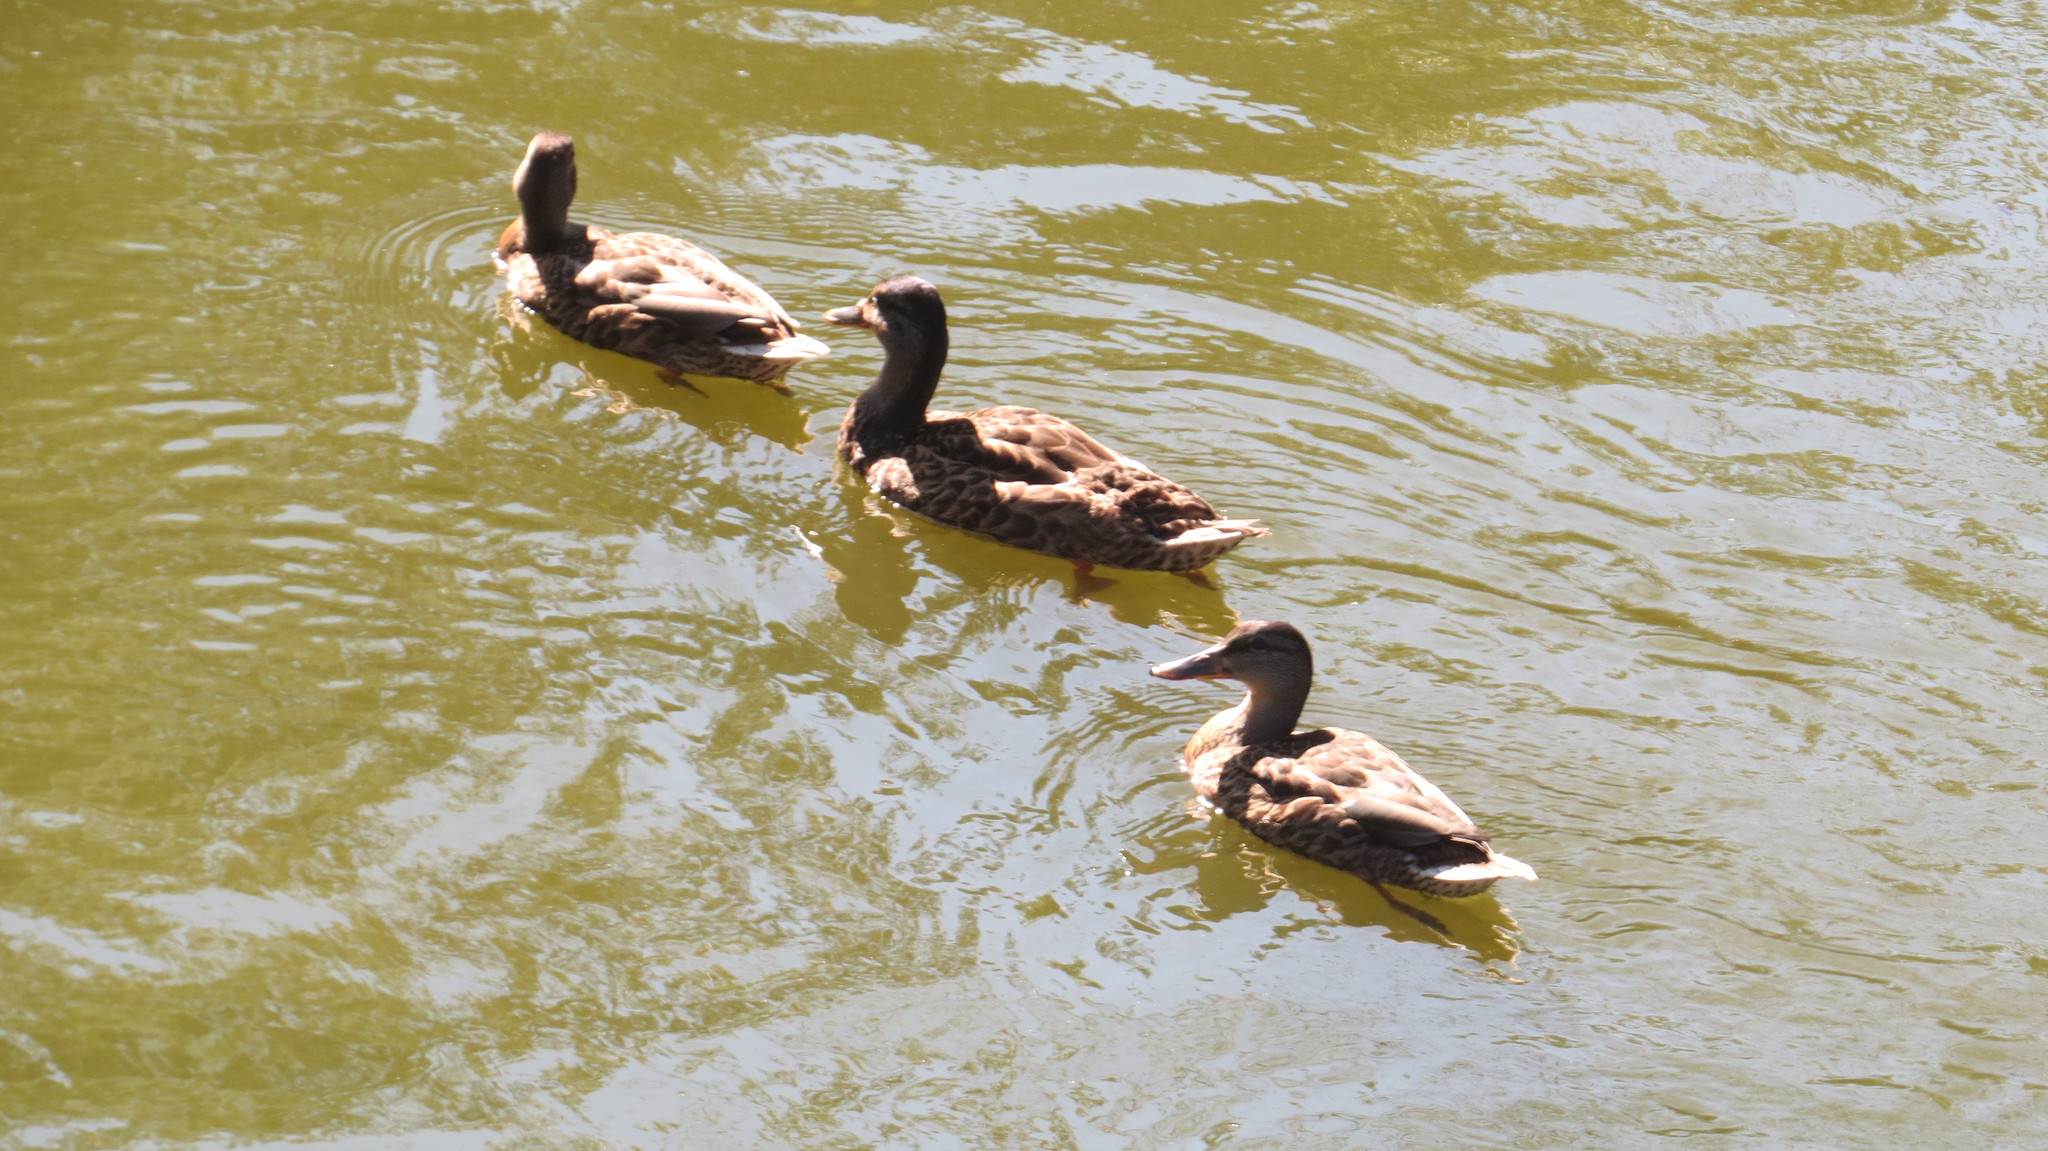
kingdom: Animalia
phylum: Chordata
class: Aves
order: Anseriformes
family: Anatidae
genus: Anas
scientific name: Anas platyrhynchos
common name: Mallard
